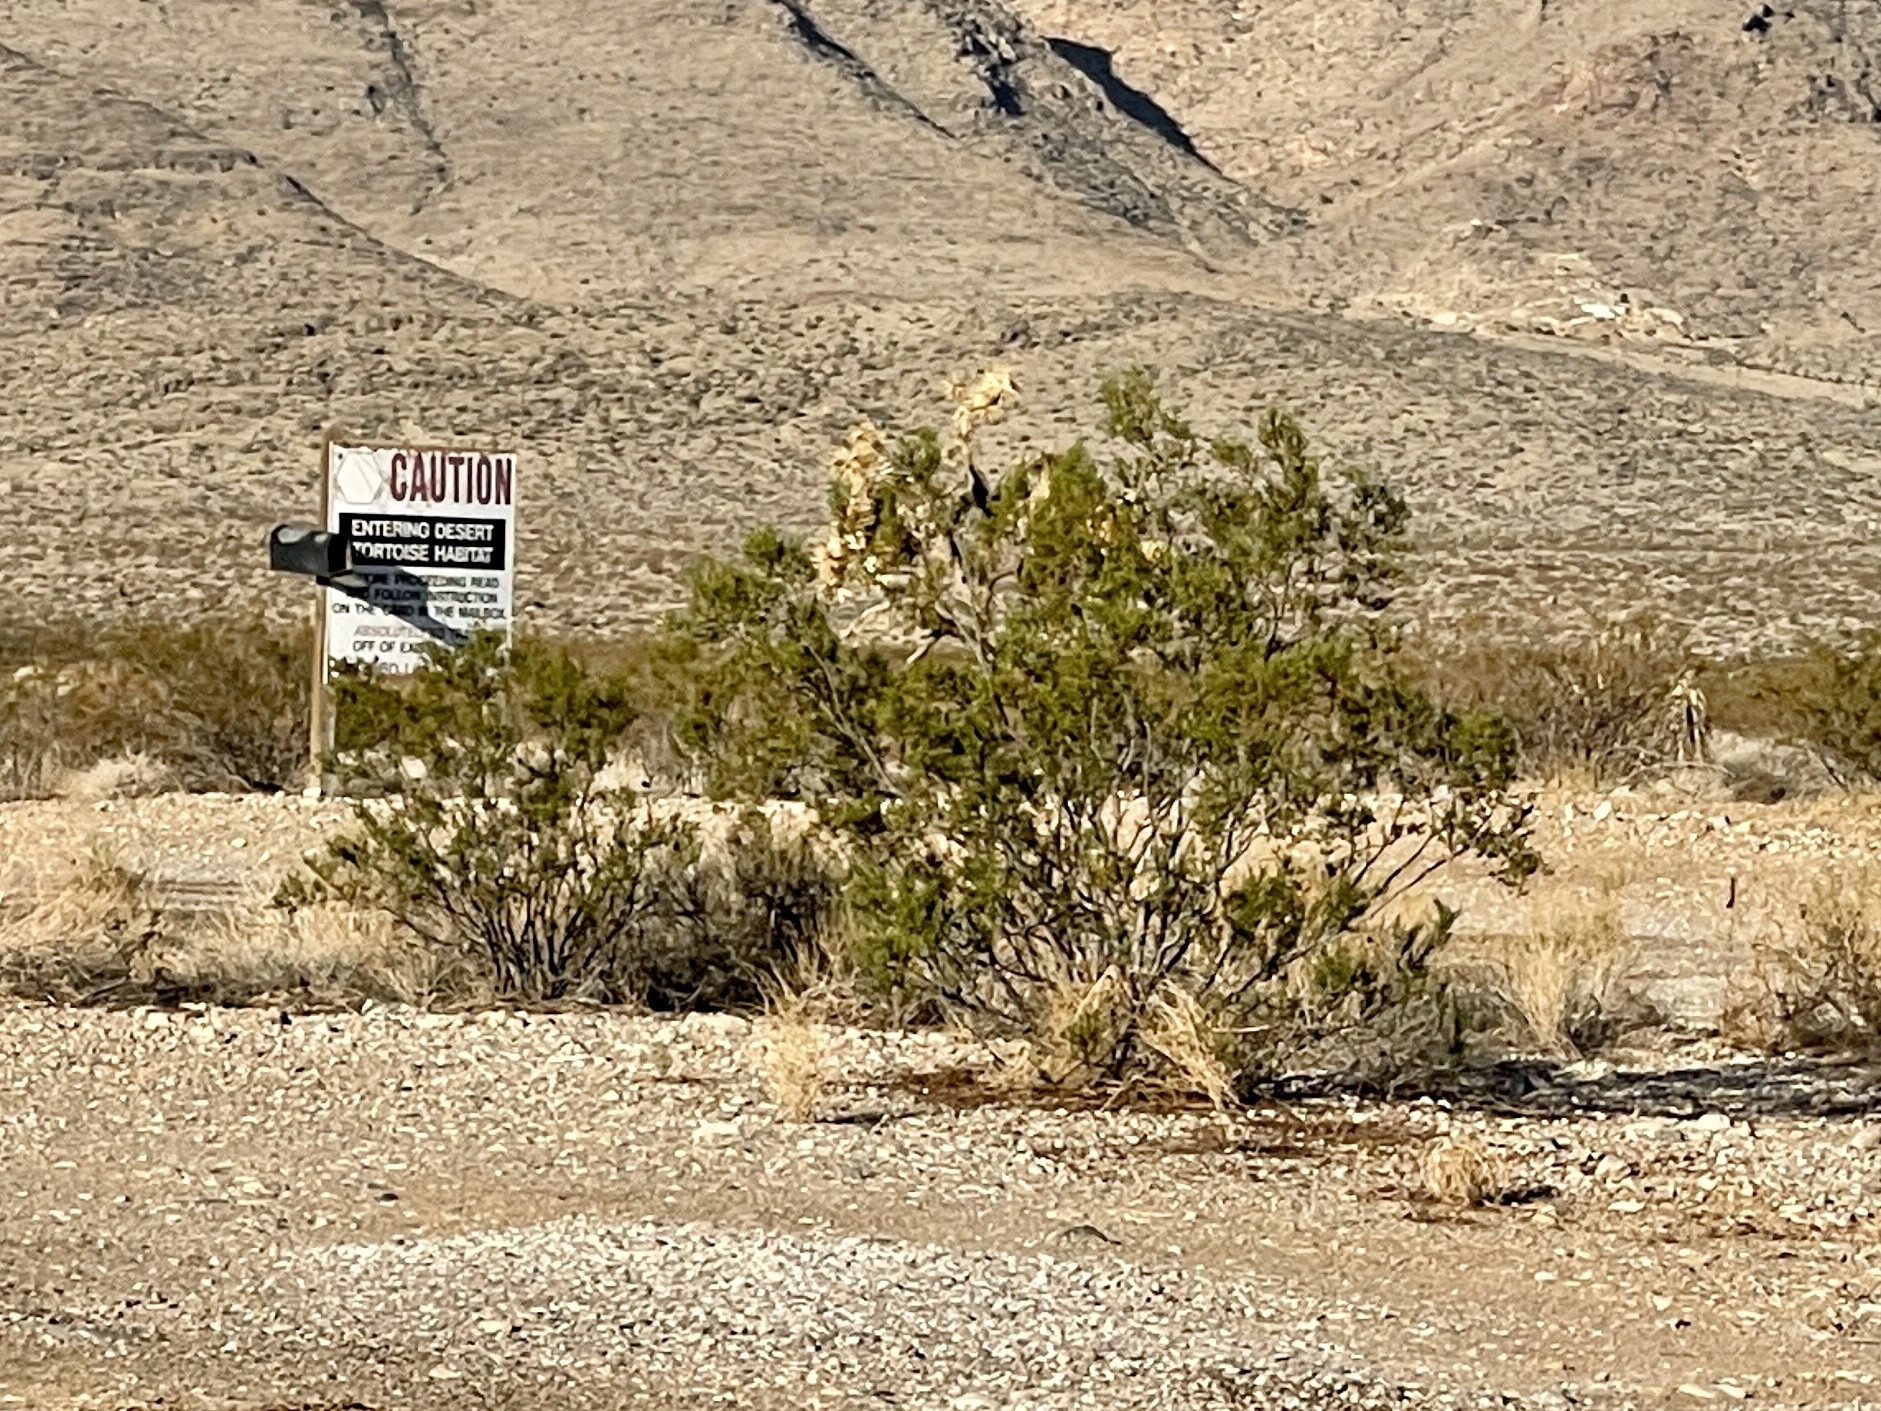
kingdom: Plantae
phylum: Tracheophyta
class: Magnoliopsida
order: Zygophyllales
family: Zygophyllaceae
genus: Larrea
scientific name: Larrea tridentata
